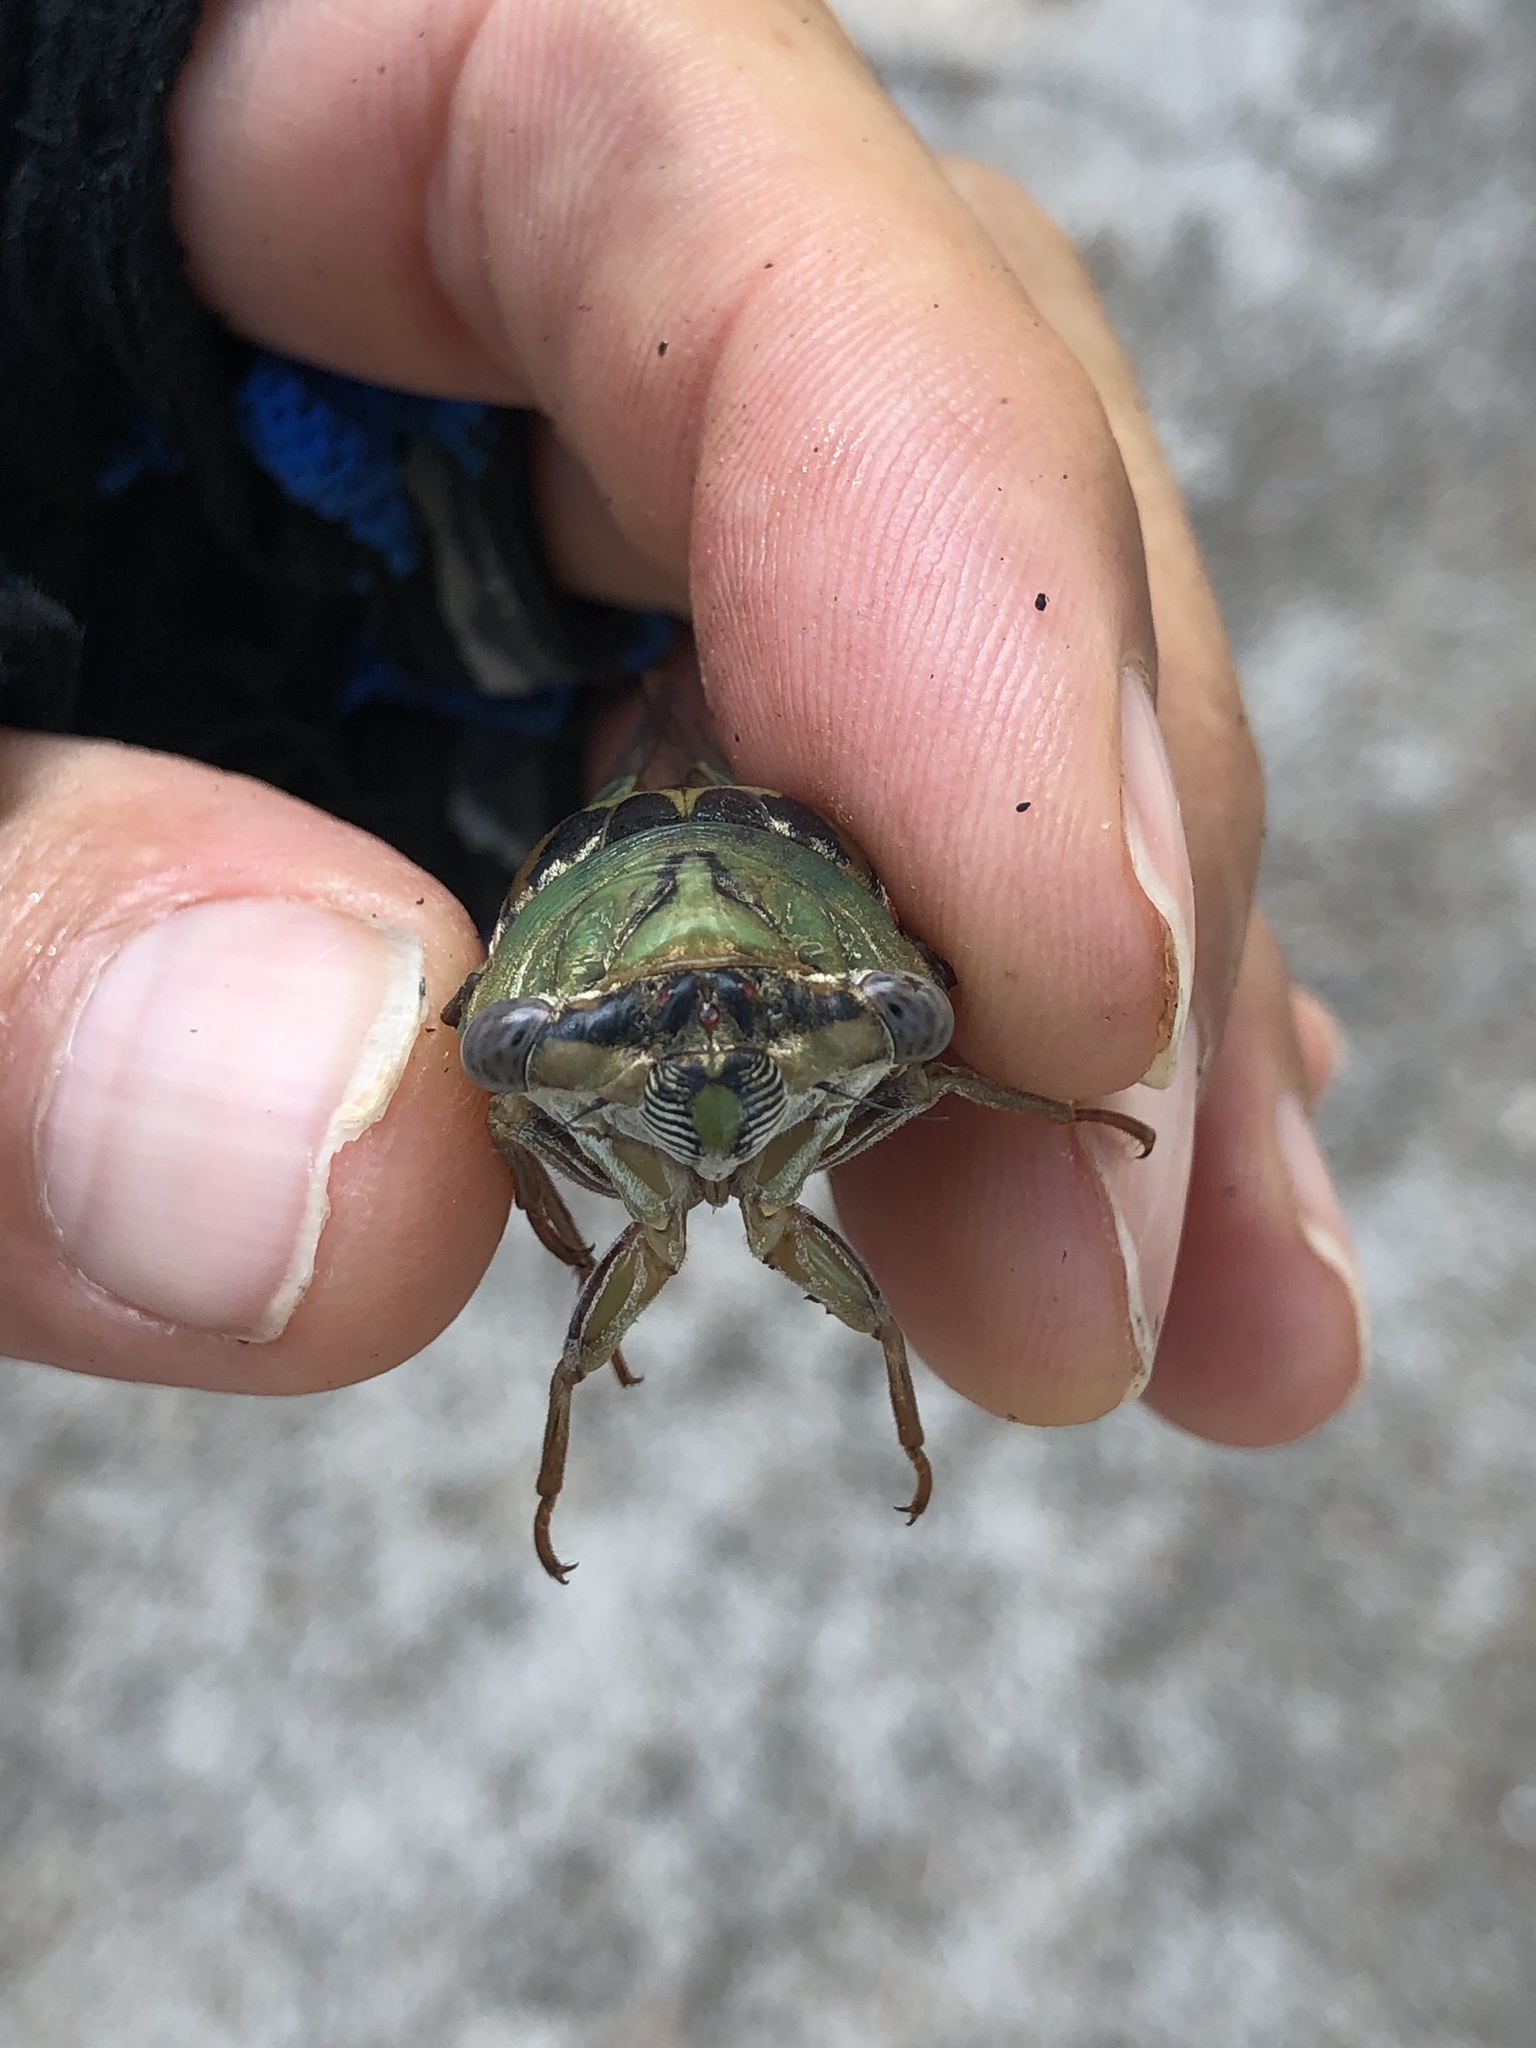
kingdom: Animalia
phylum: Arthropoda
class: Insecta
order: Hemiptera
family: Cicadidae
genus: Megatibicen
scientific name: Megatibicen resh
